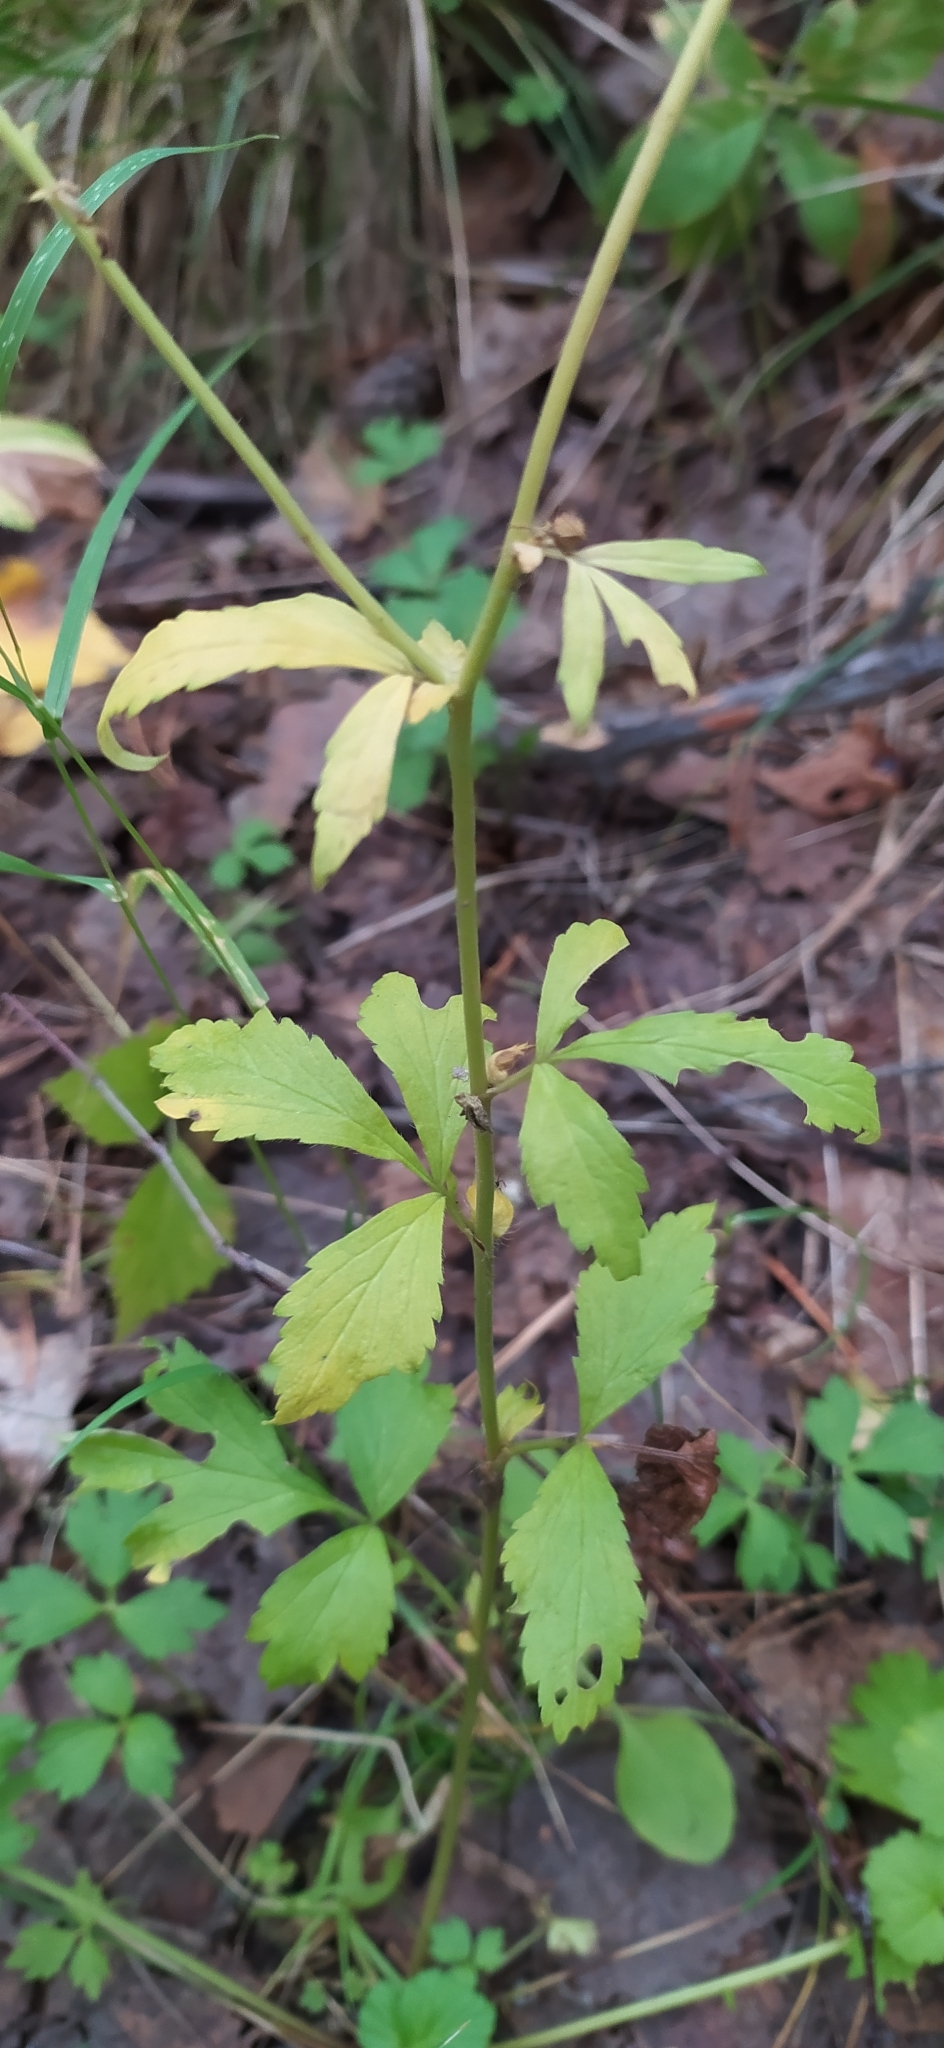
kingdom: Plantae
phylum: Tracheophyta
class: Magnoliopsida
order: Rosales
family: Rosaceae
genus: Geum
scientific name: Geum aleppicum
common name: Yellow avens
